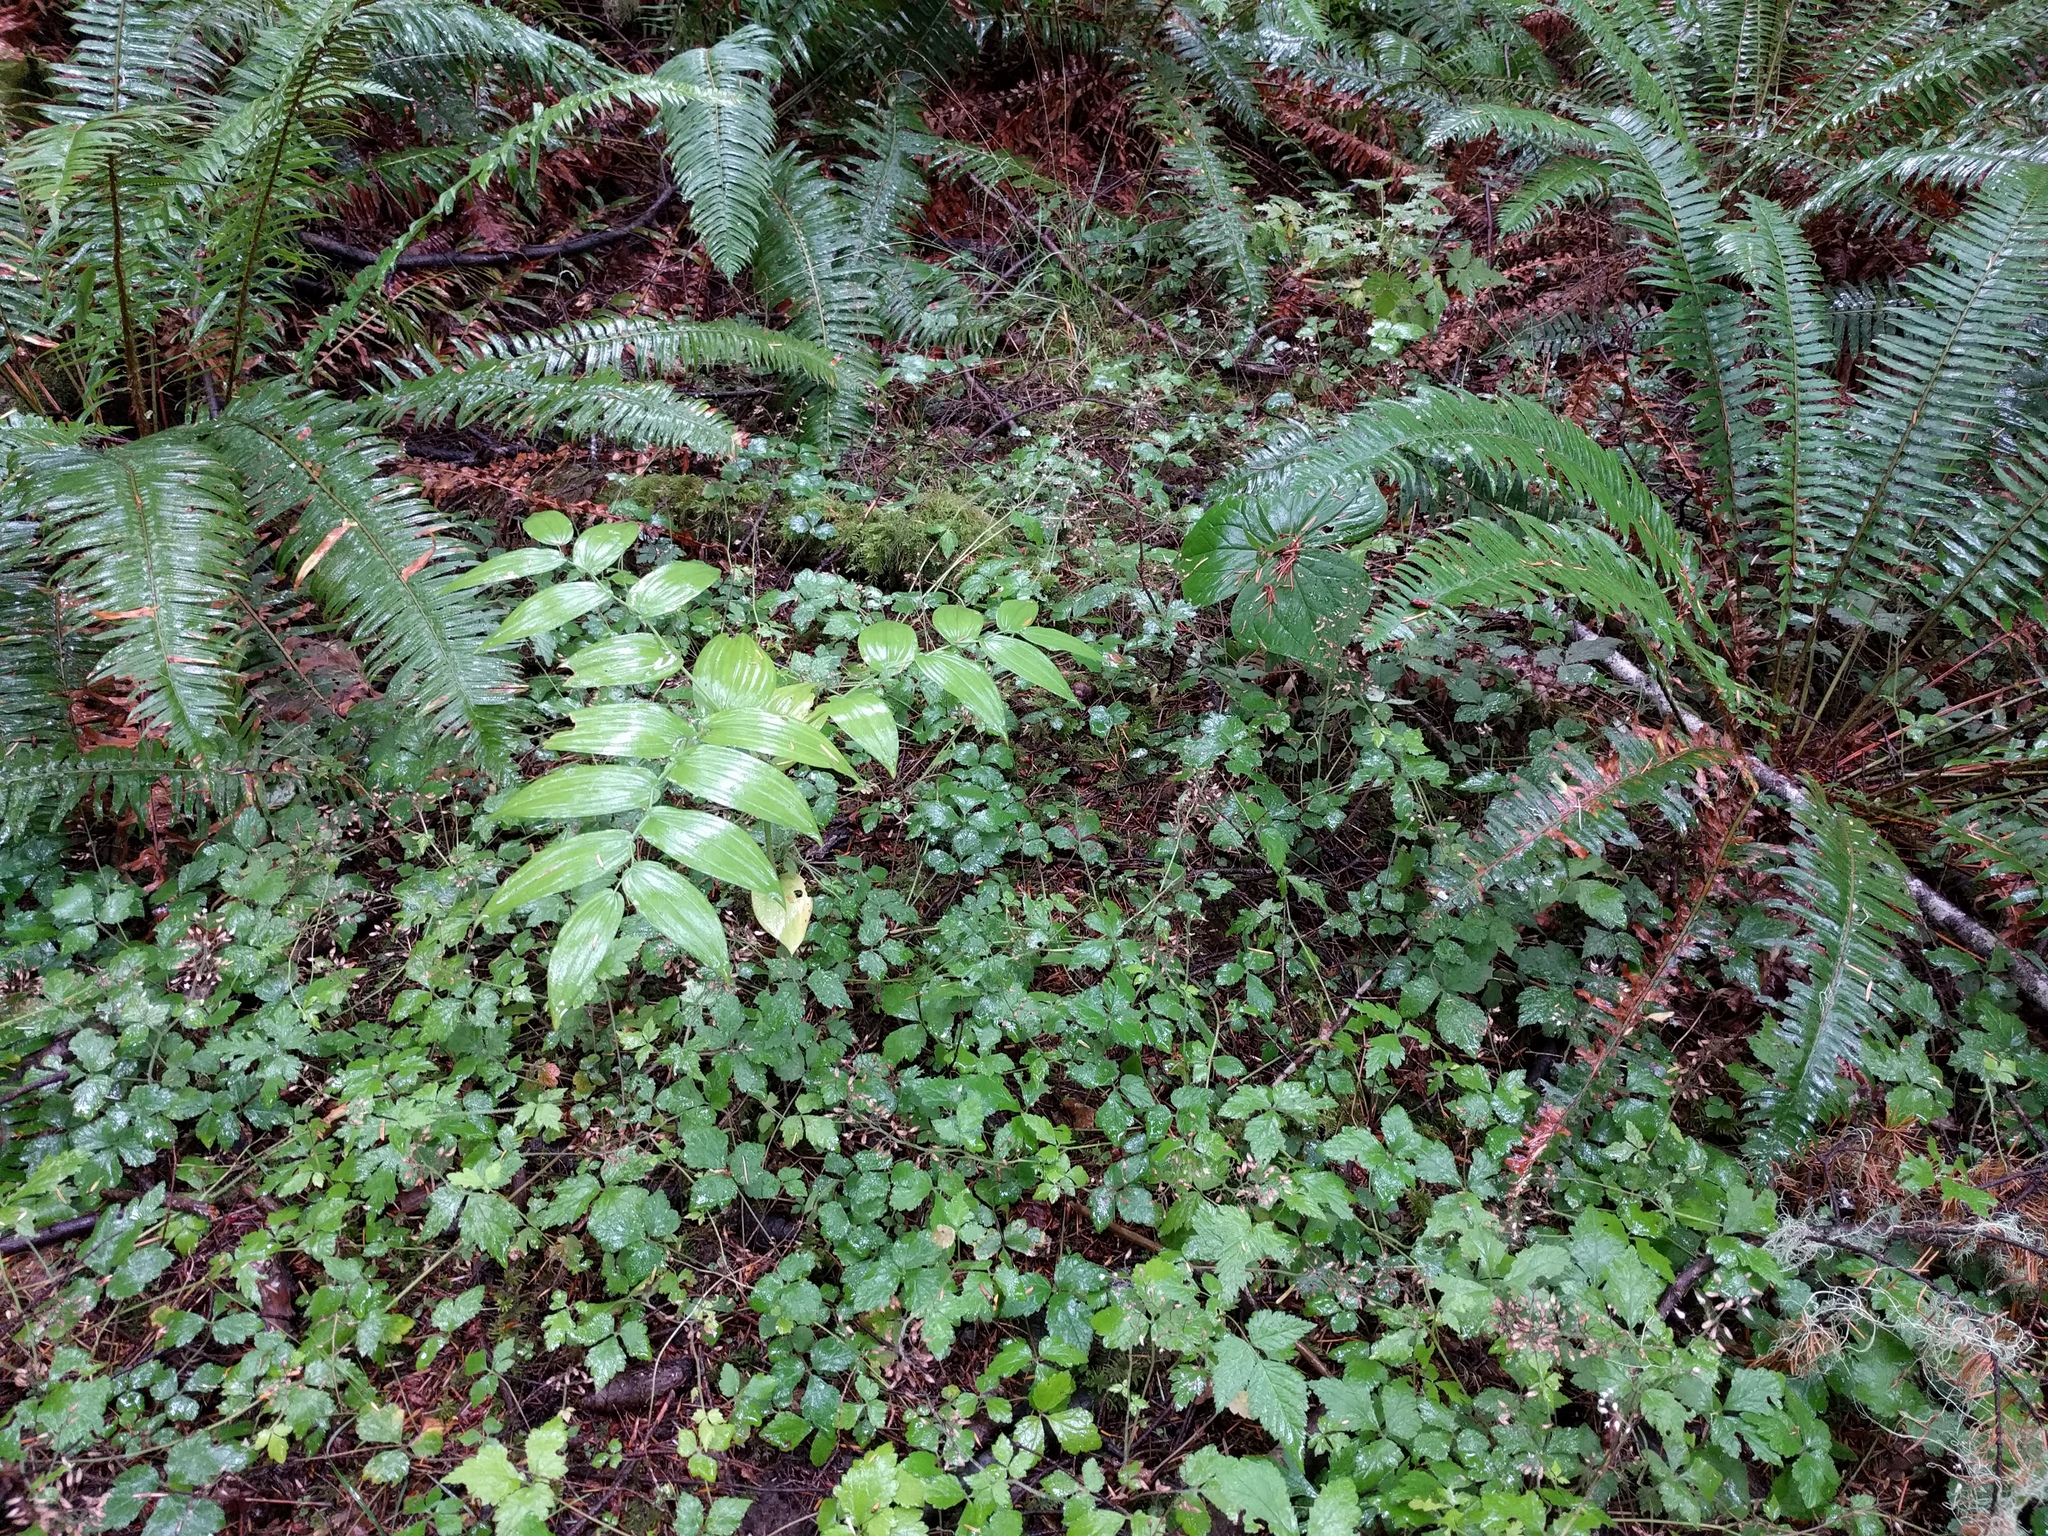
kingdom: Plantae
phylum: Tracheophyta
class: Liliopsida
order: Liliales
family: Liliaceae
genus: Streptopus
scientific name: Streptopus amplexifolius
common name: Clasp twisted stalk
